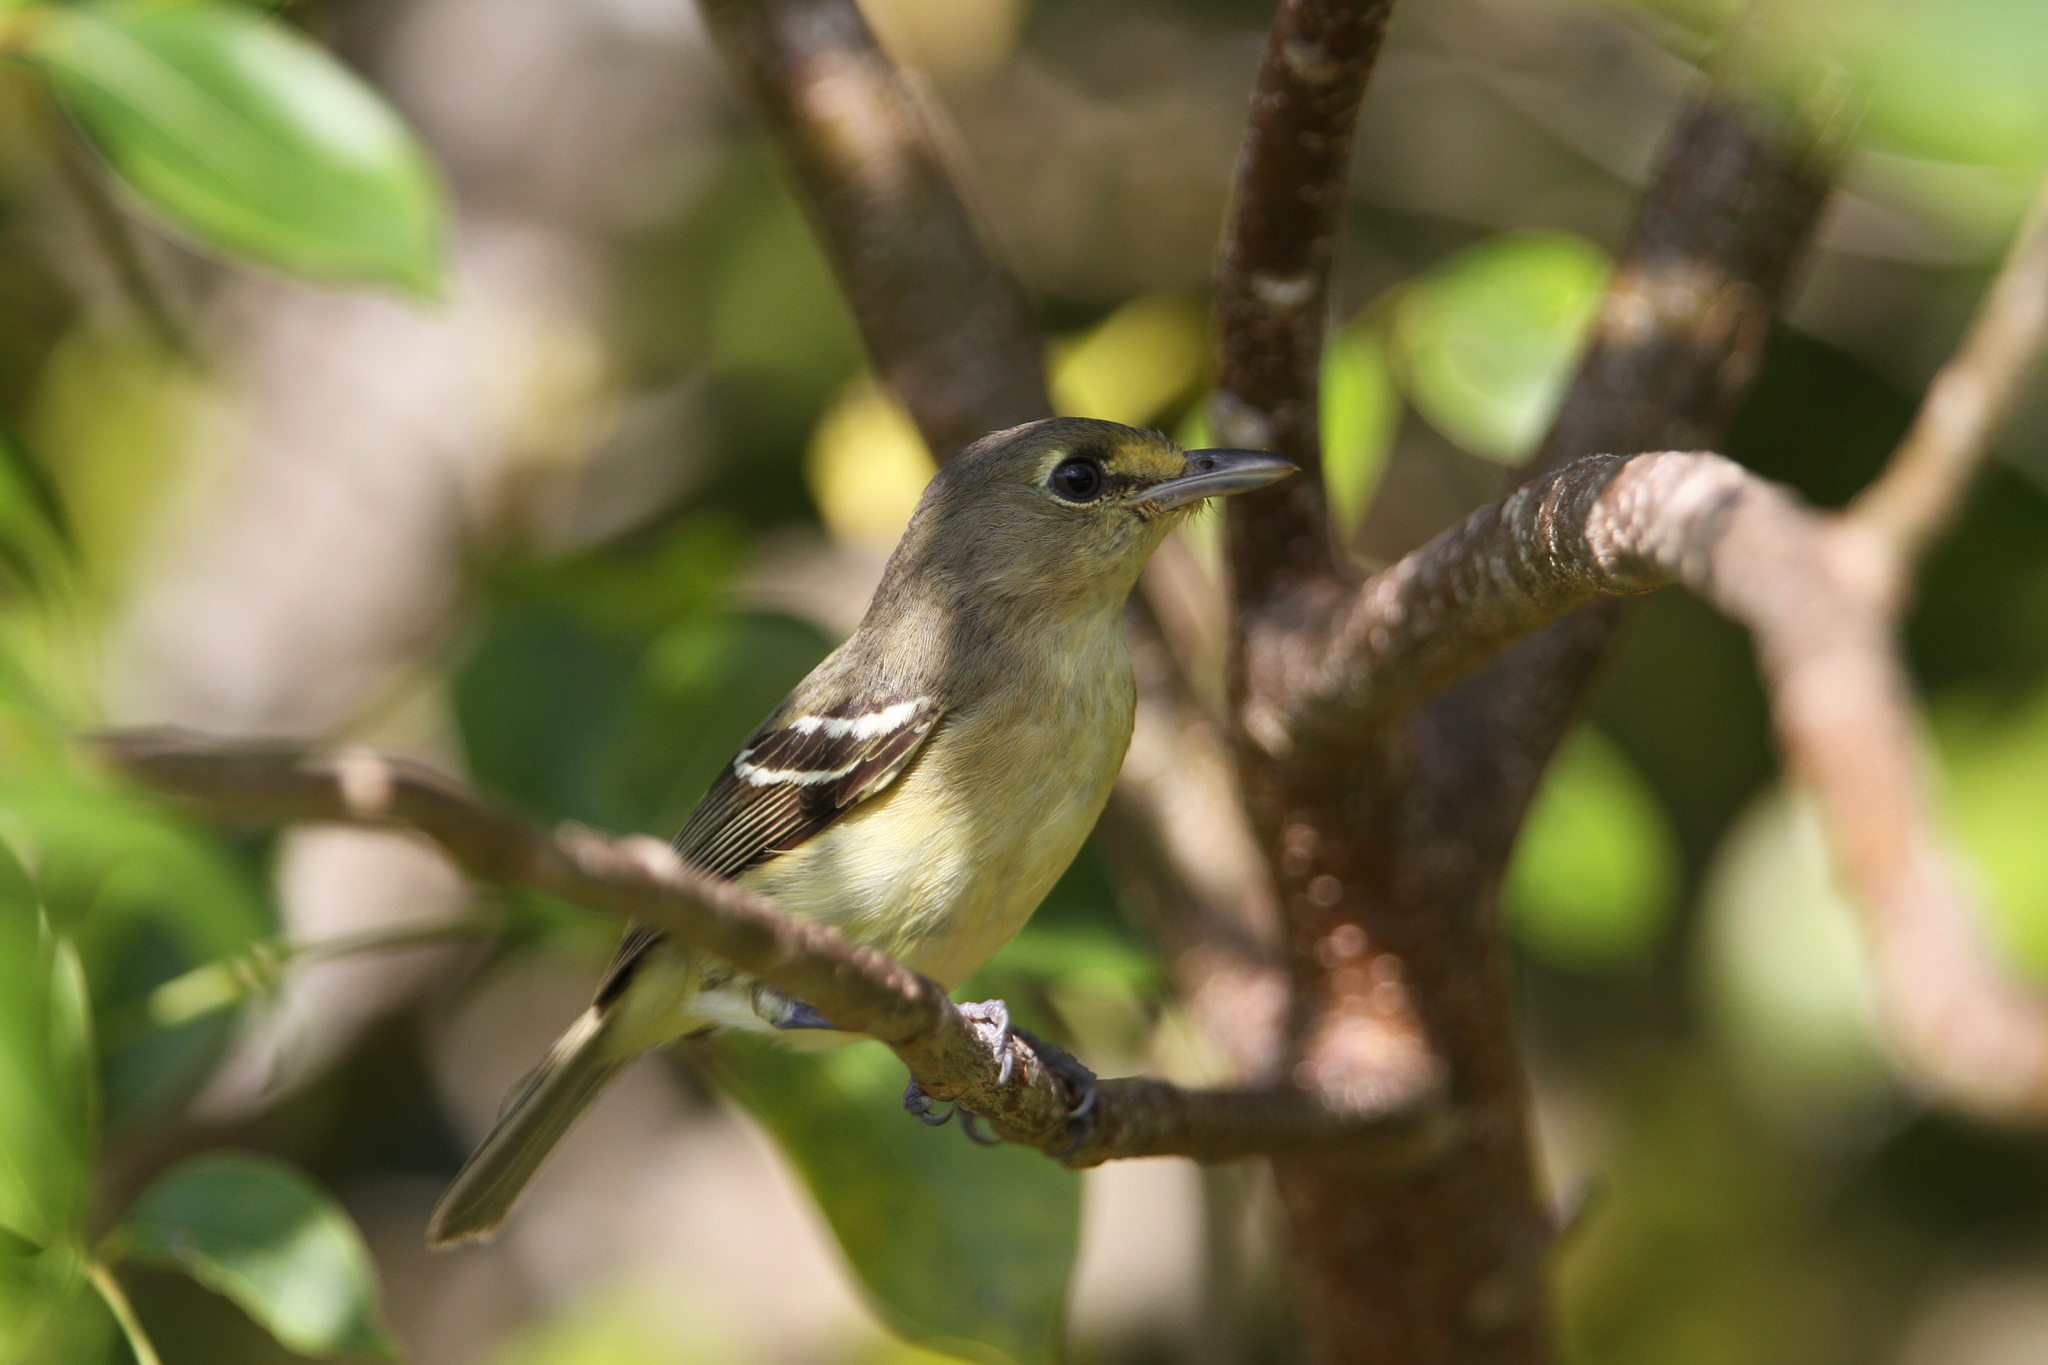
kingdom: Animalia
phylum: Chordata
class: Aves
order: Passeriformes
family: Vireonidae
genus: Vireo
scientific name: Vireo crassirostris
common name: Thick-billed vireo
